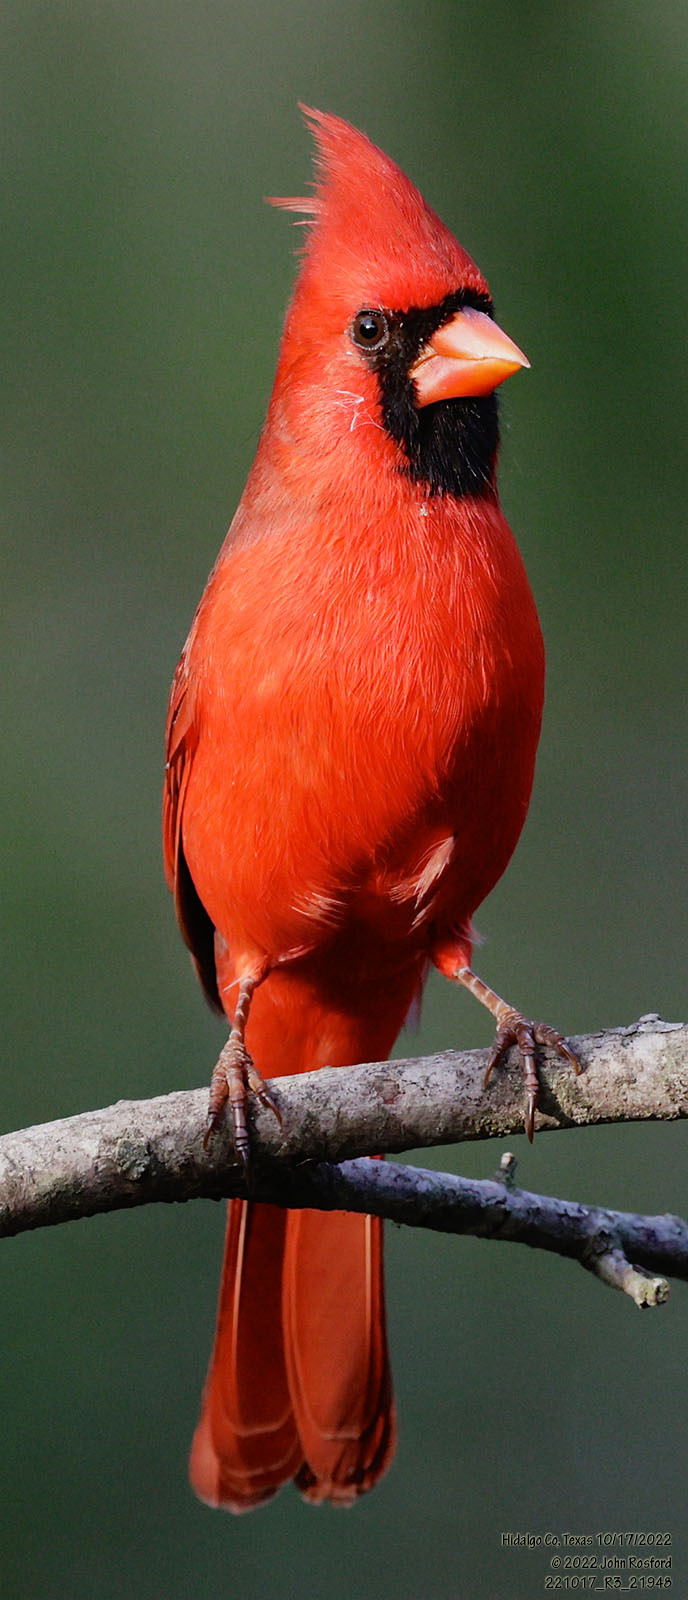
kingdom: Animalia
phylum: Chordata
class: Aves
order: Passeriformes
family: Cardinalidae
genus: Cardinalis
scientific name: Cardinalis cardinalis
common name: Northern cardinal
